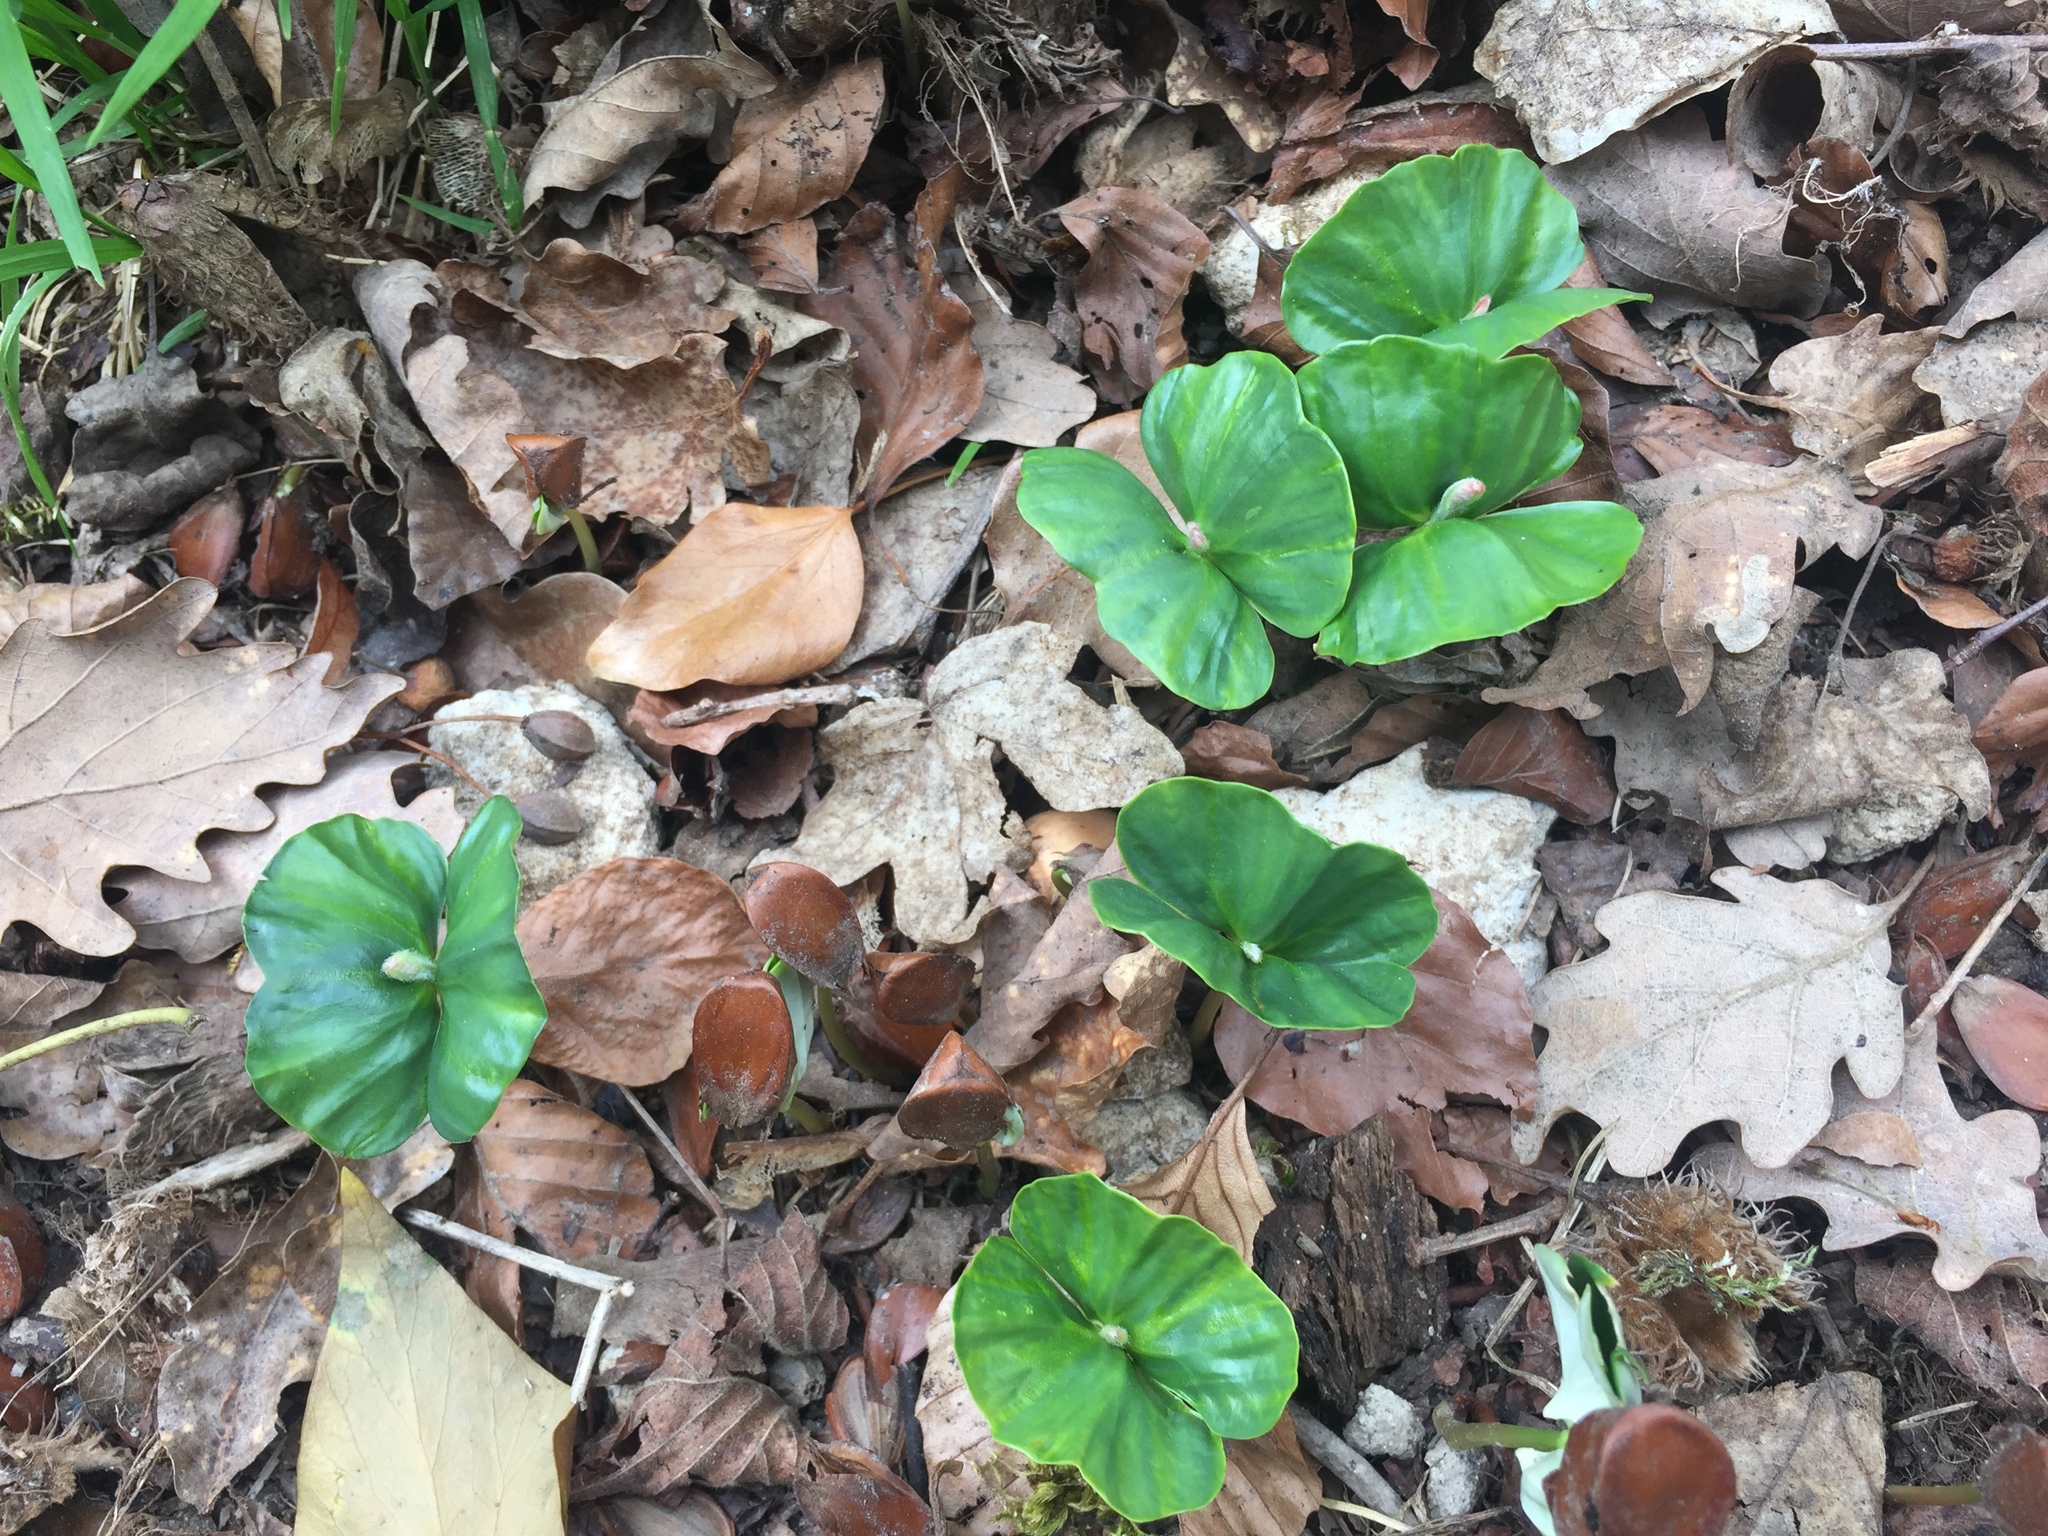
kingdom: Plantae
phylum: Tracheophyta
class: Magnoliopsida
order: Fagales
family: Fagaceae
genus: Fagus
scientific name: Fagus sylvatica
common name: Beech
